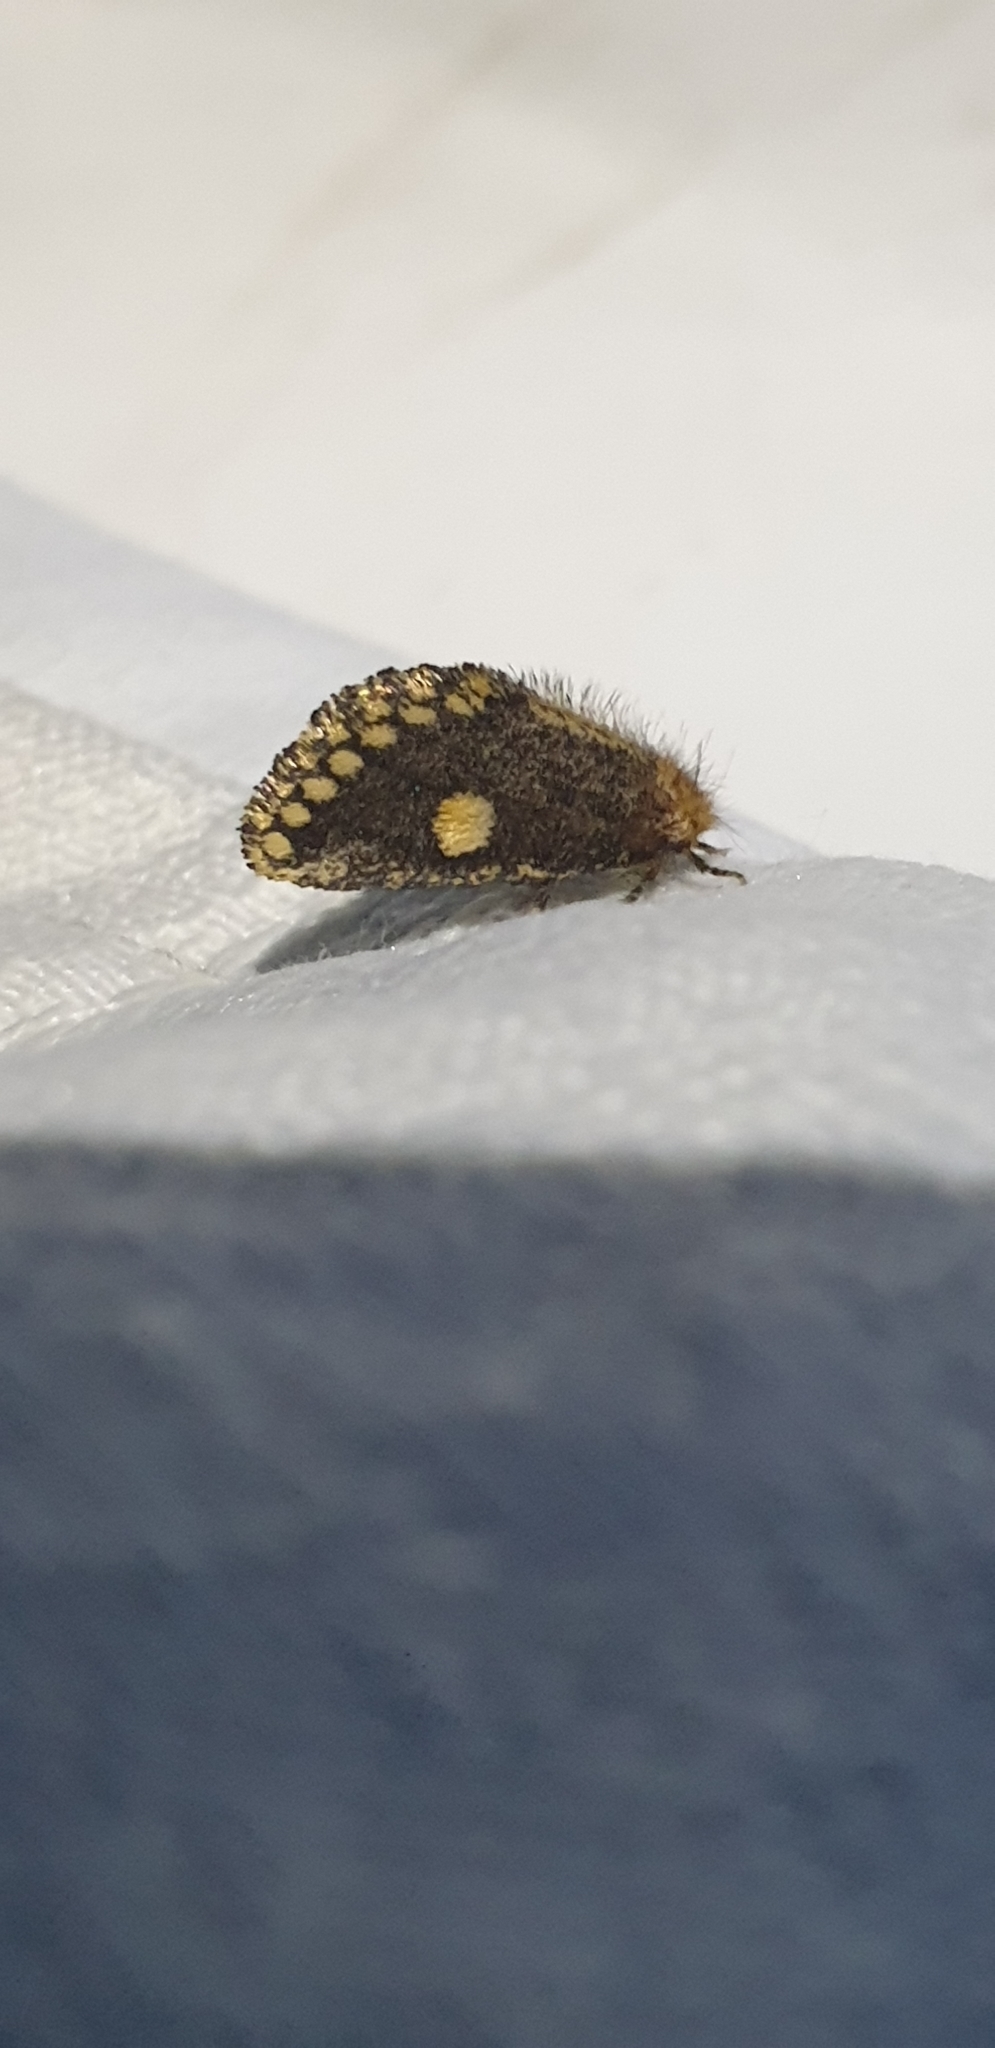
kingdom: Animalia
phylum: Arthropoda
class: Insecta
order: Lepidoptera
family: Notodontidae
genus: Epicoma
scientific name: Epicoma protrahens
